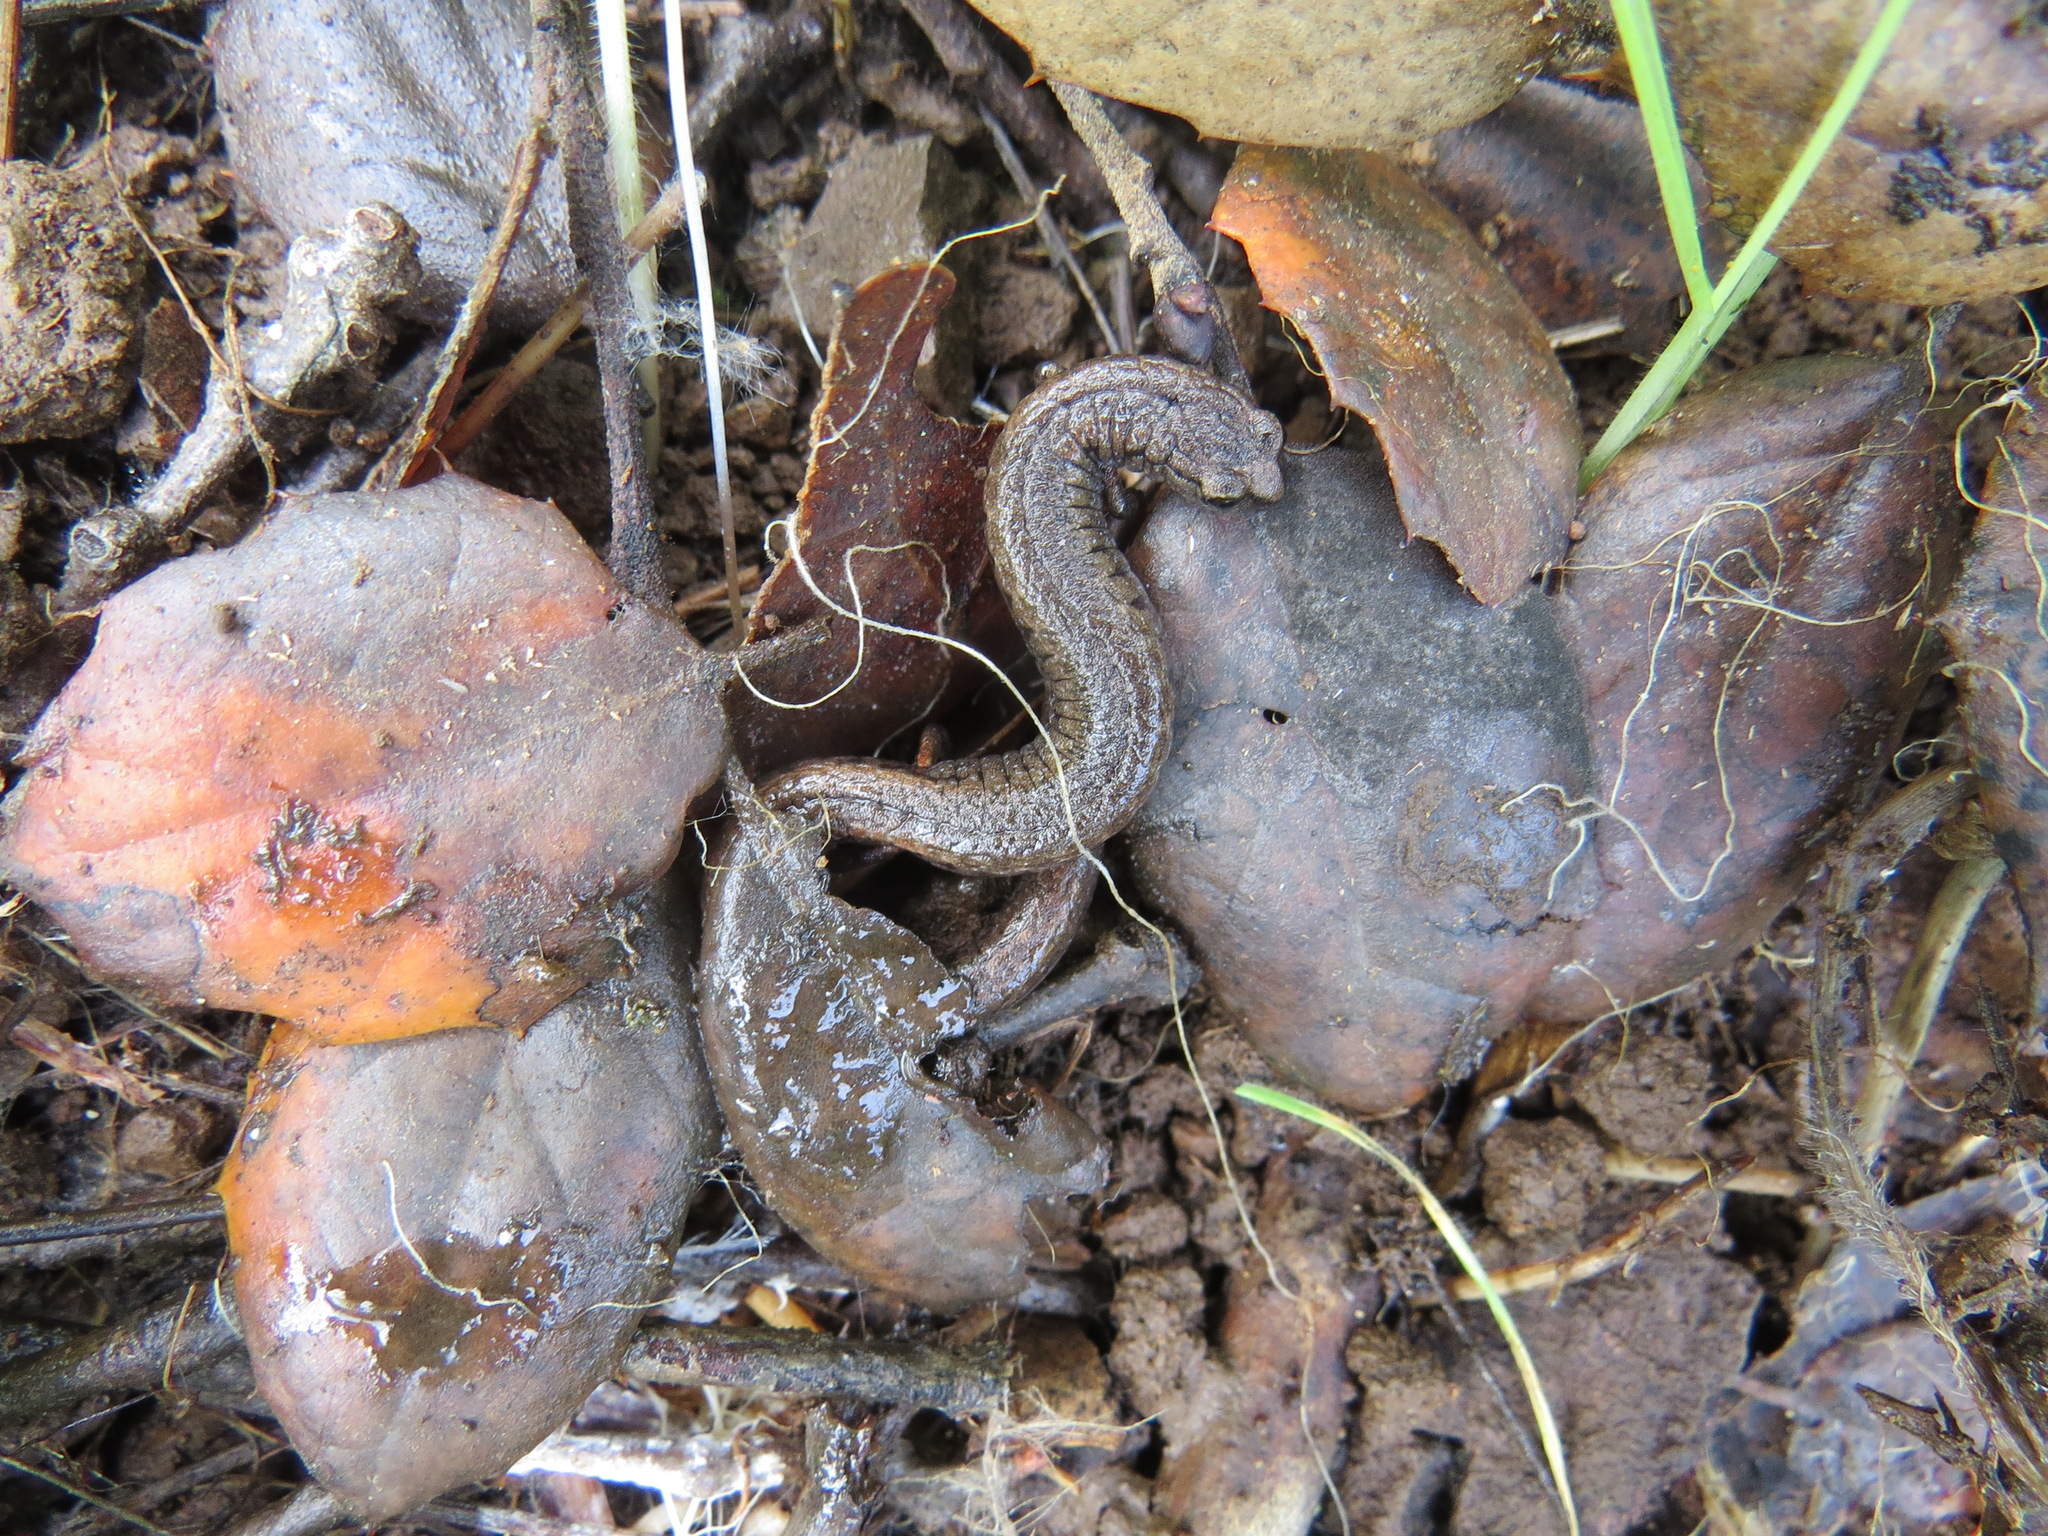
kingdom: Animalia
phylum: Chordata
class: Amphibia
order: Caudata
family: Plethodontidae
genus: Batrachoseps
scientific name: Batrachoseps attenuatus
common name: California slender salamander
